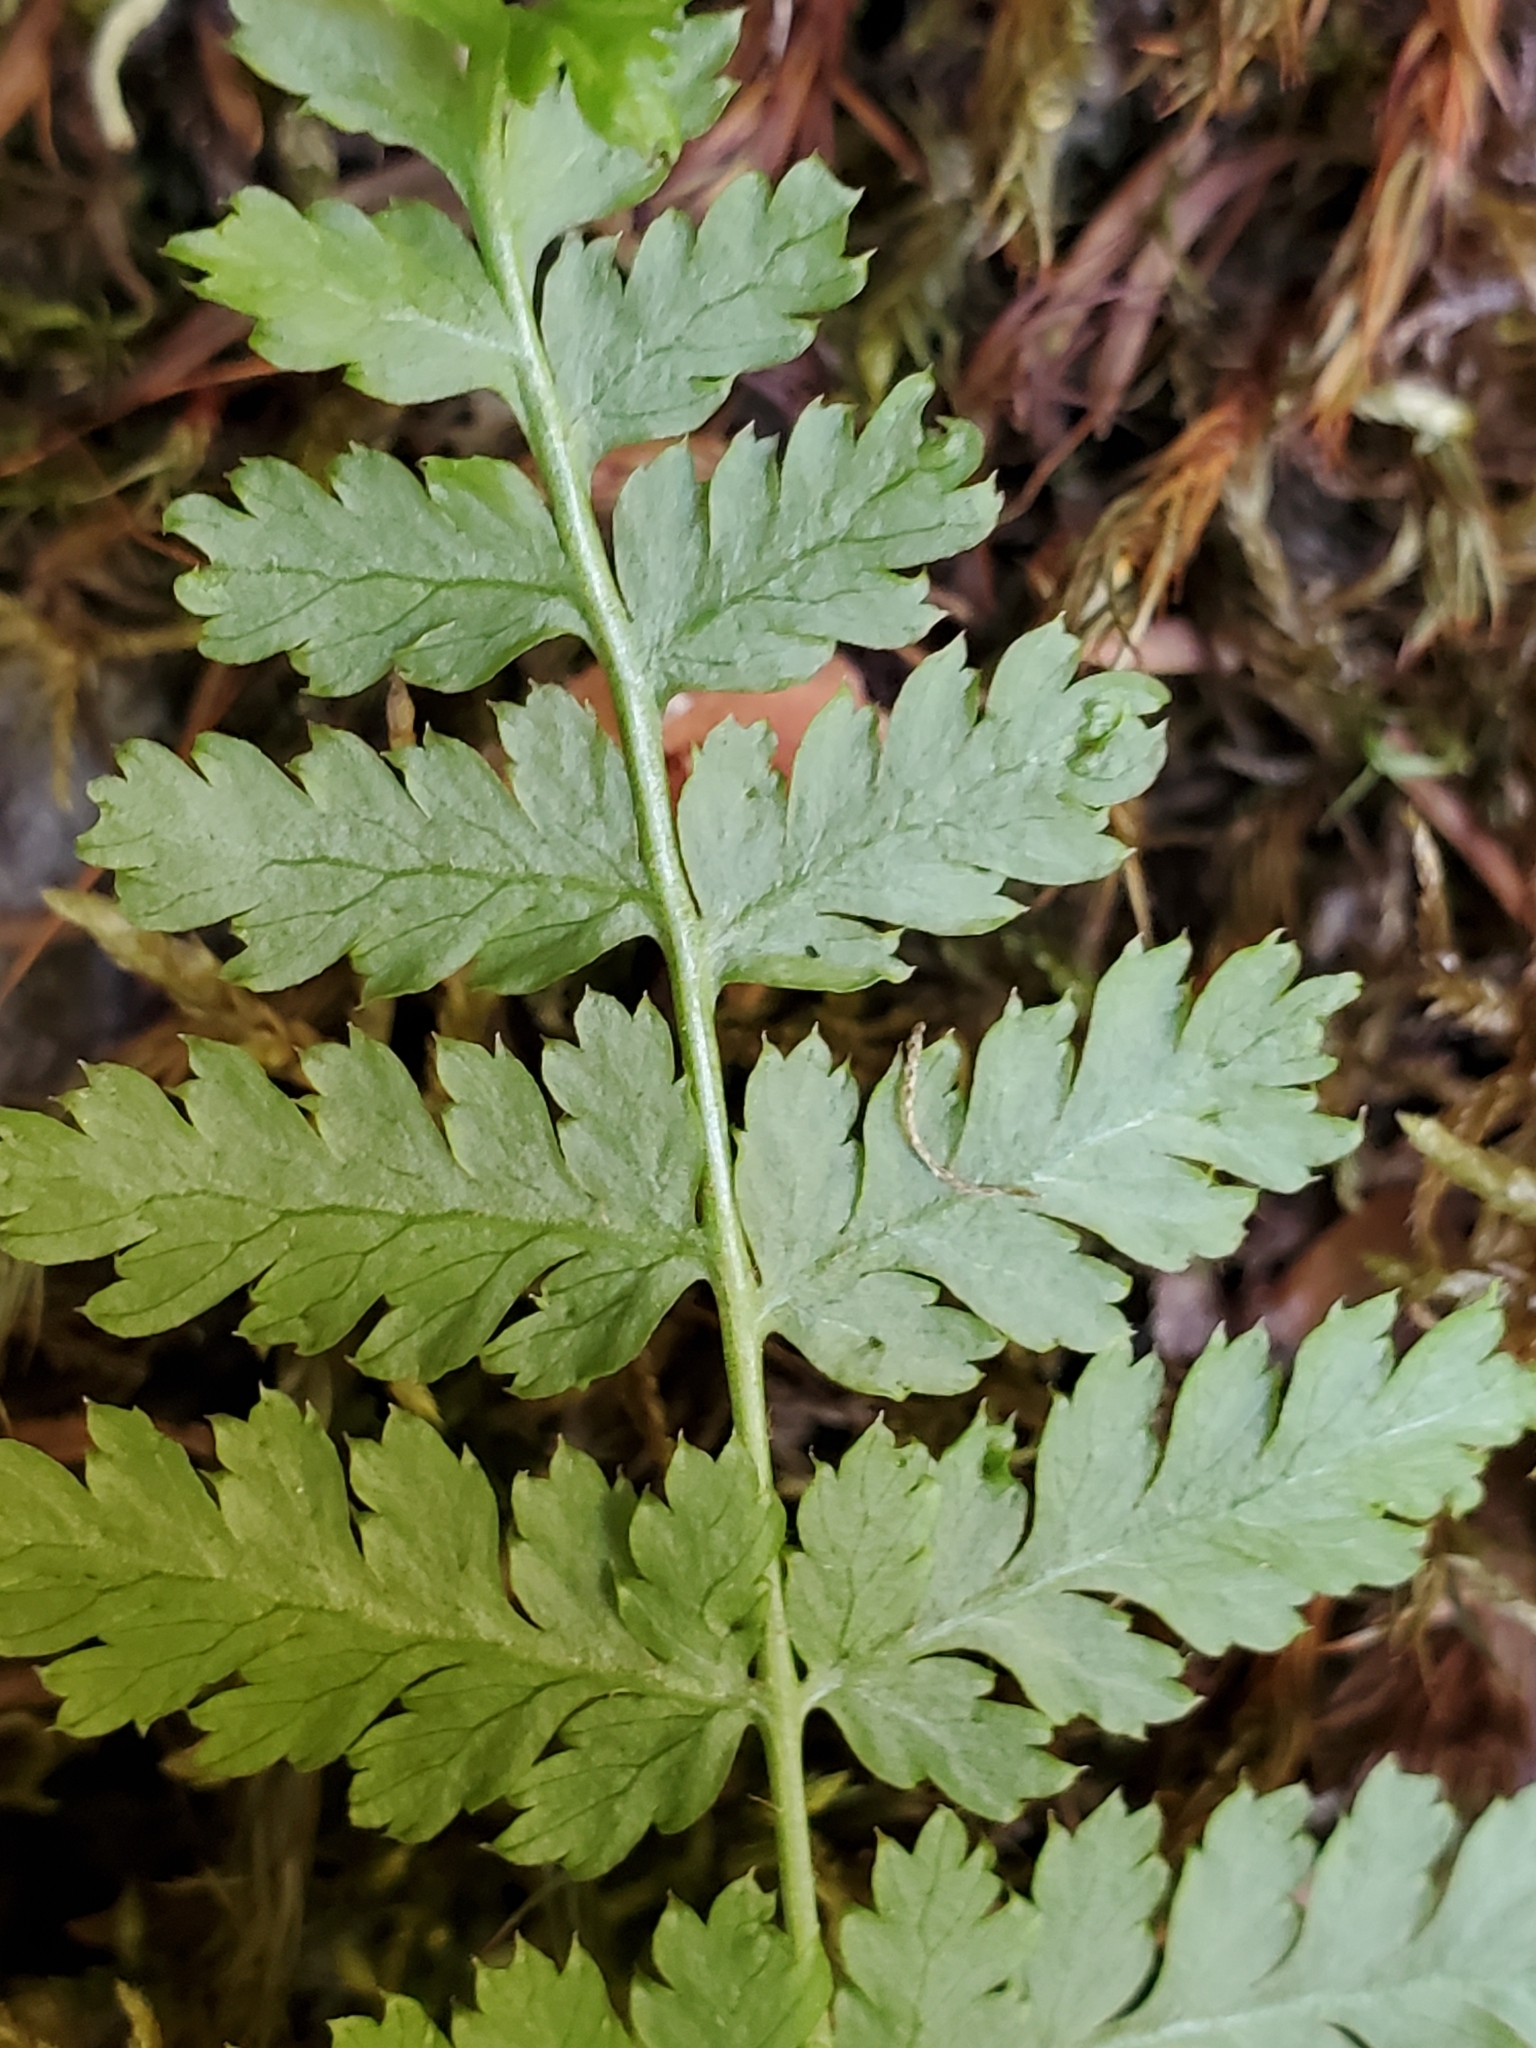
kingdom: Plantae
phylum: Tracheophyta
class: Polypodiopsida
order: Polypodiales
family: Dryopteridaceae
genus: Dryopteris
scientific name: Dryopteris expansa
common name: Northern buckler fern
